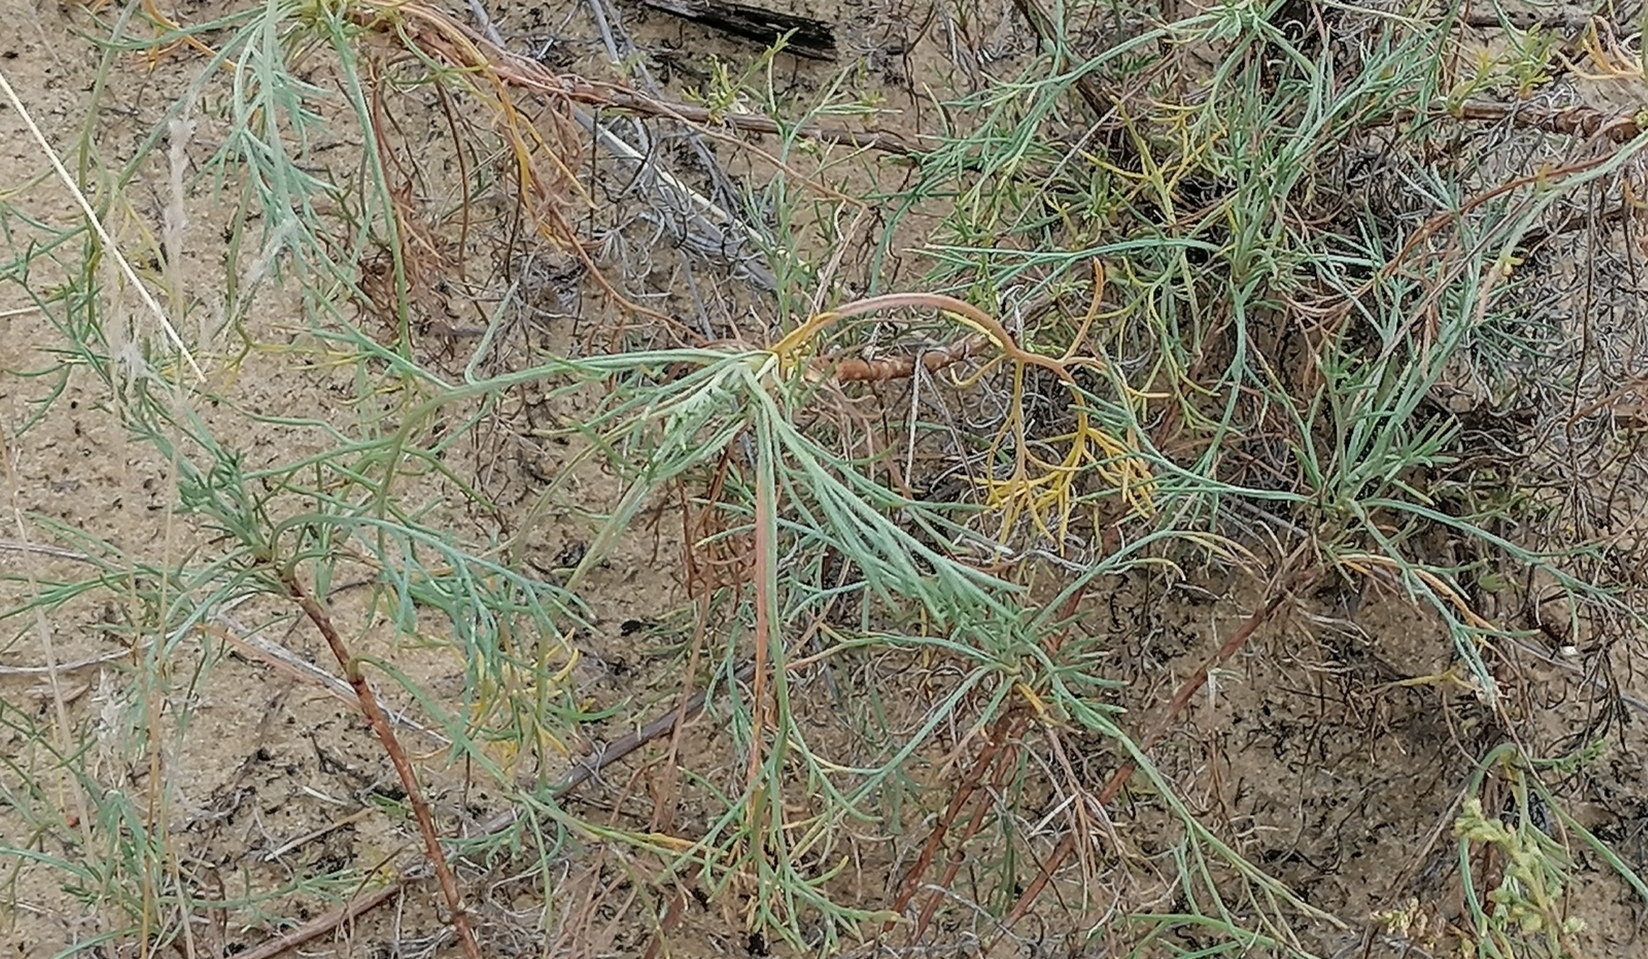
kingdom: Plantae
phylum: Tracheophyta
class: Magnoliopsida
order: Asterales
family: Asteraceae
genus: Artemisia
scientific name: Artemisia marschalliana
